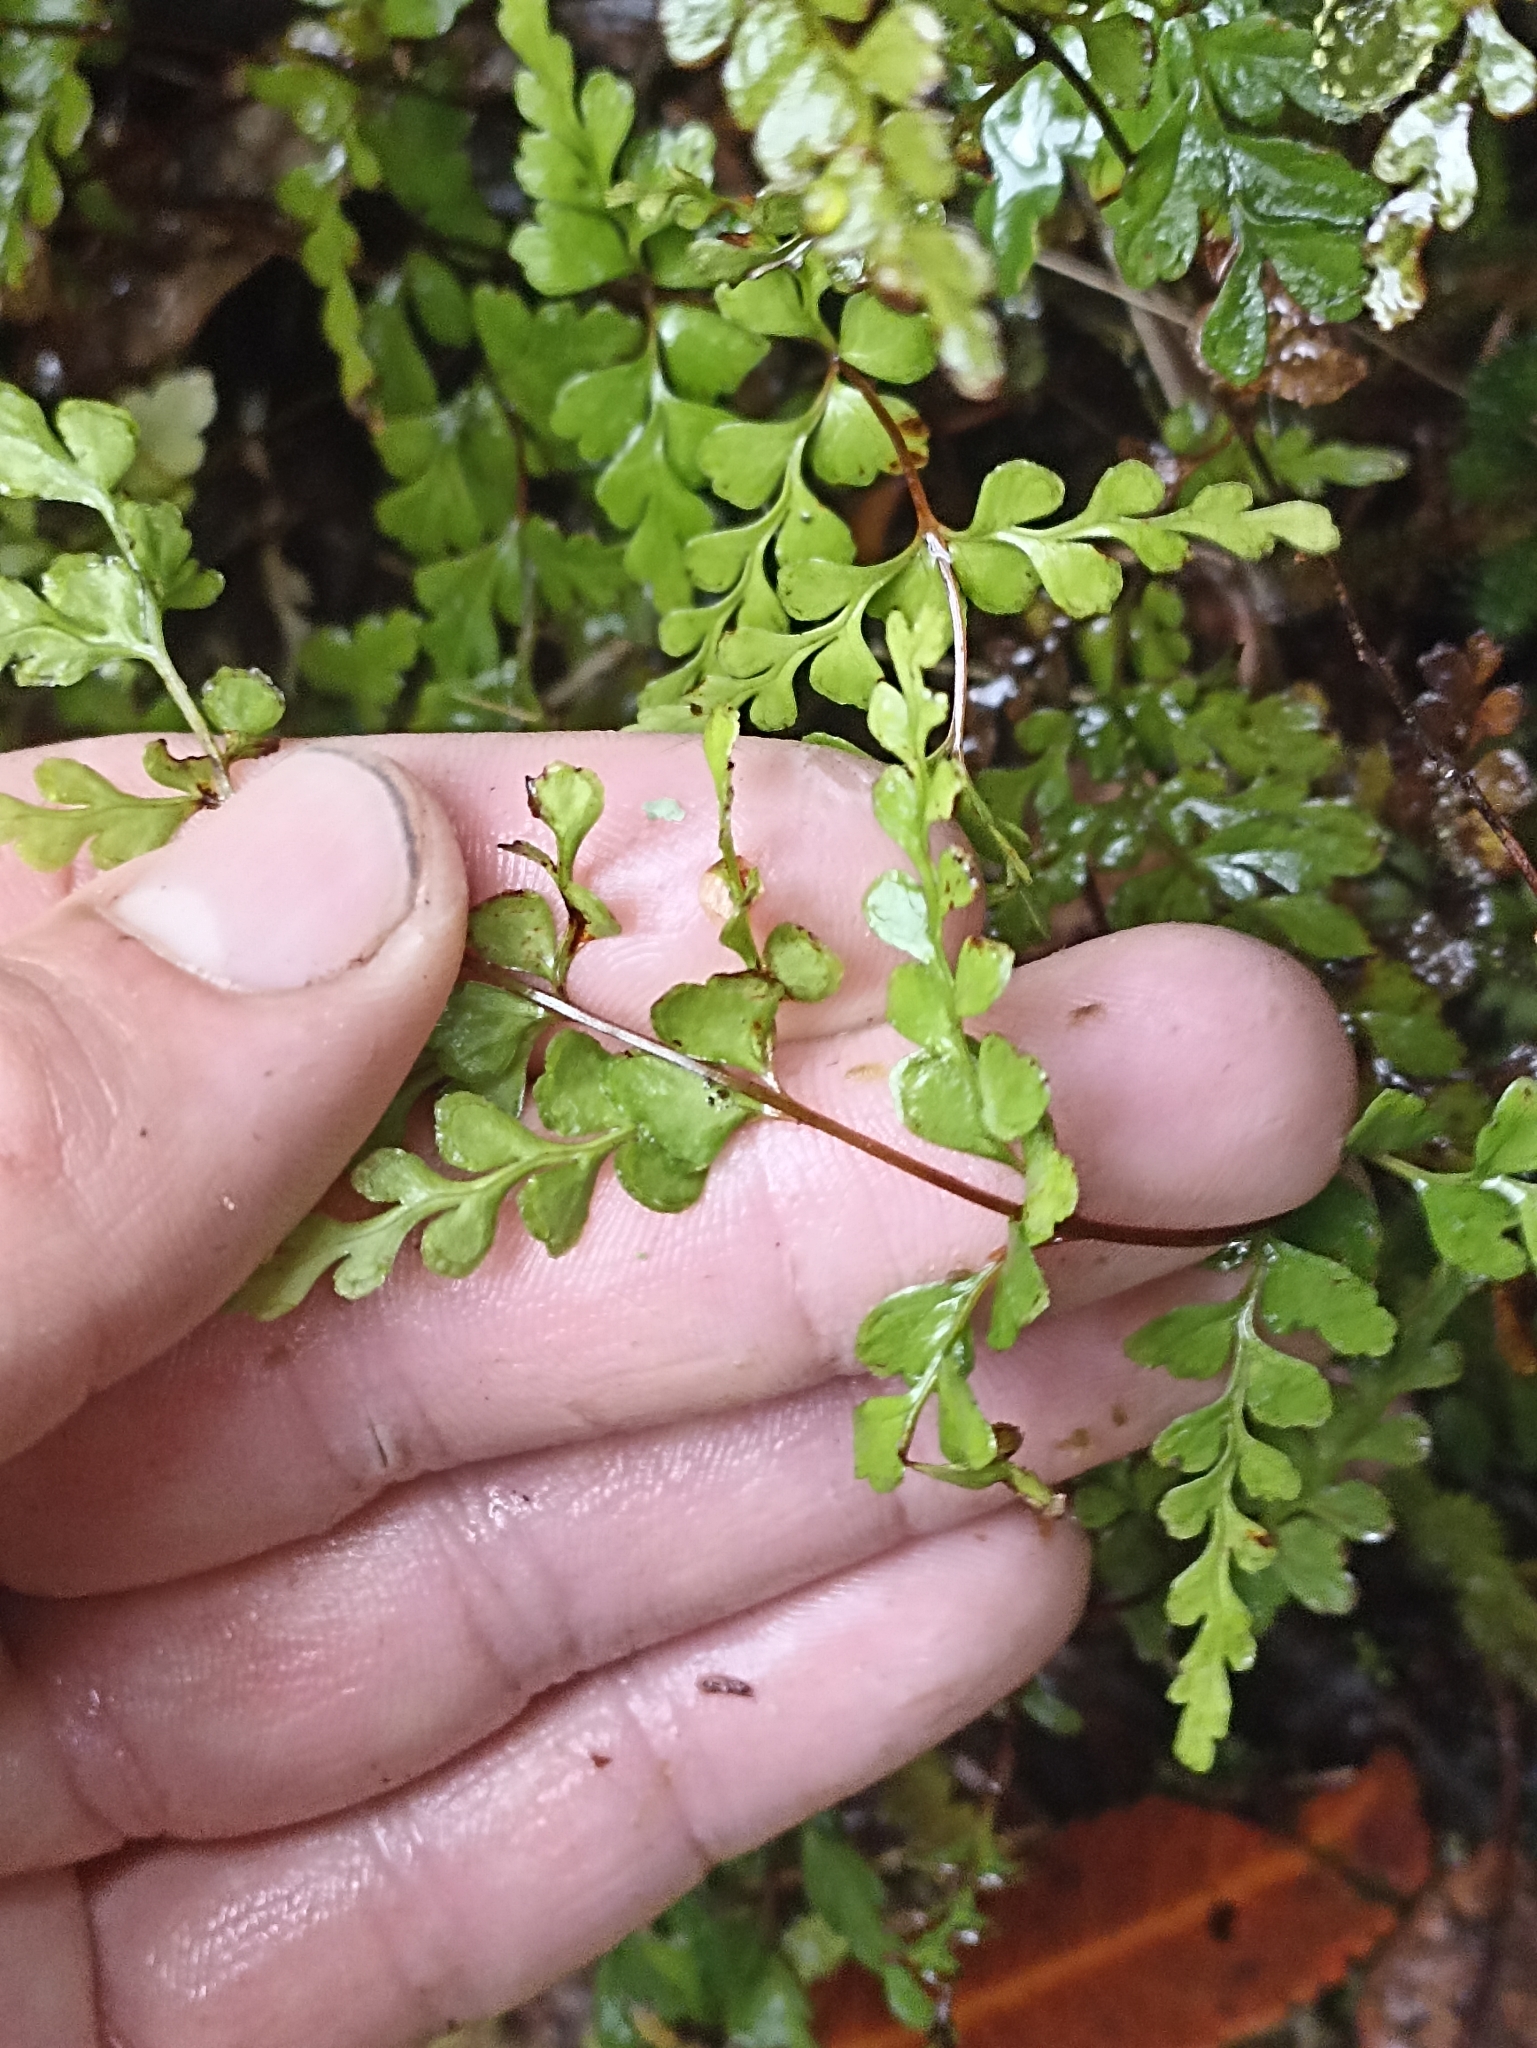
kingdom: Plantae
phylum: Tracheophyta
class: Polypodiopsida
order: Polypodiales
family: Lindsaeaceae
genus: Lindsaea
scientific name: Lindsaea trichomanoides
